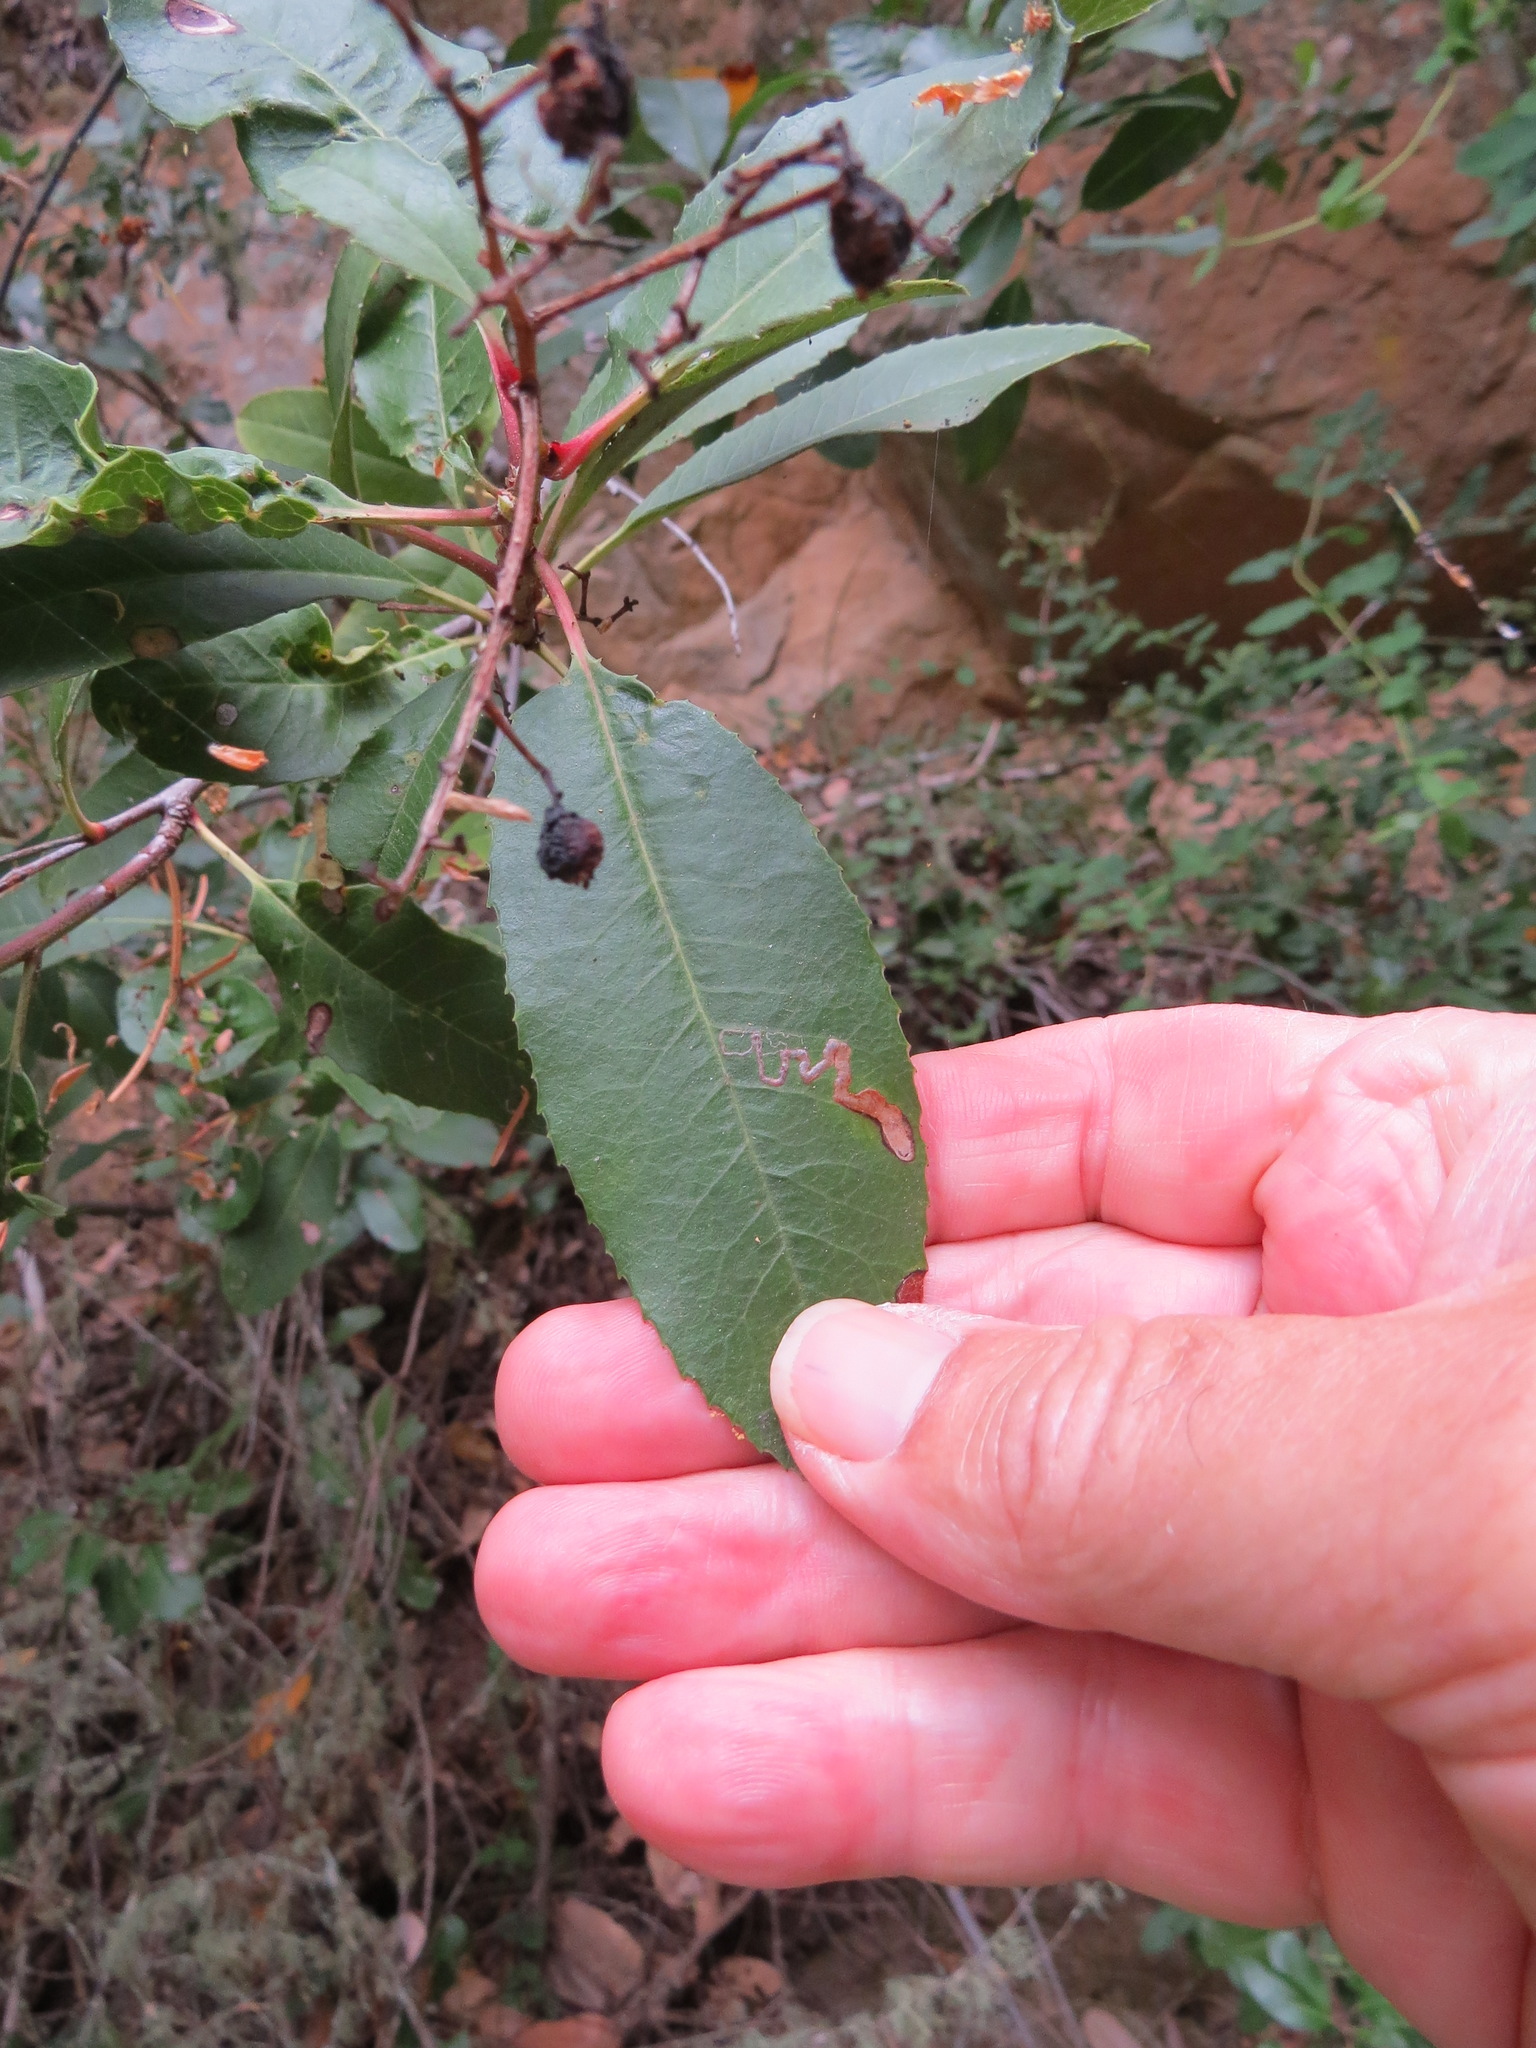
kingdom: Animalia
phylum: Arthropoda
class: Insecta
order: Lepidoptera
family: Nepticulidae
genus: Stigmella
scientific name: Stigmella heteromelis
